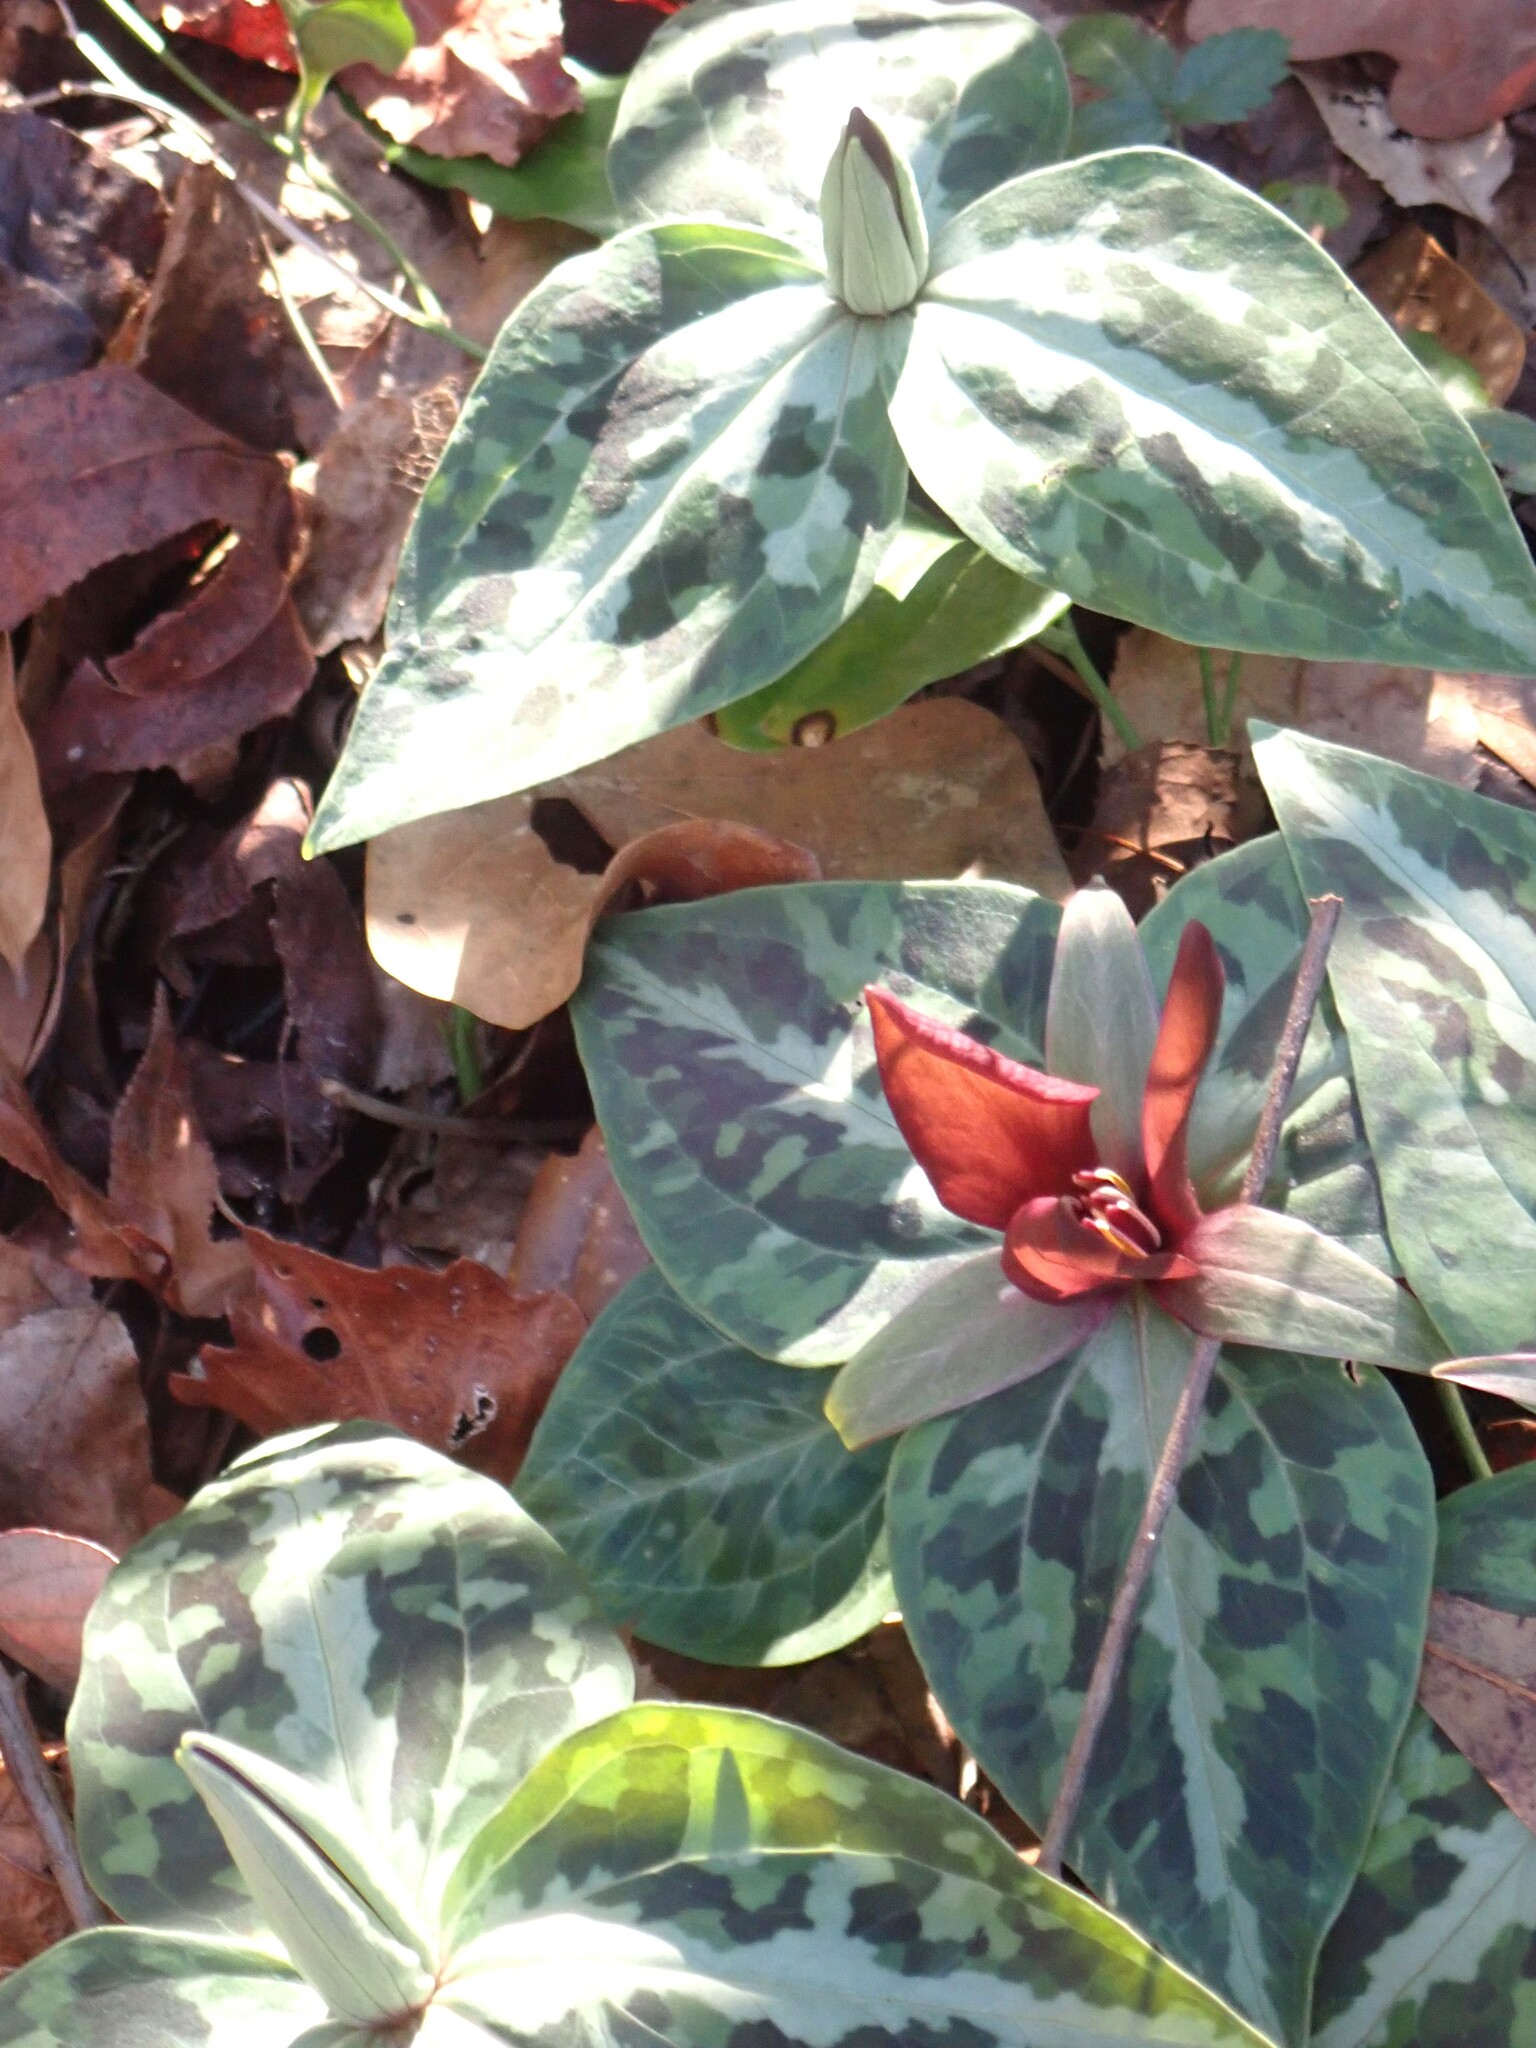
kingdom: Plantae
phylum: Tracheophyta
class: Liliopsida
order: Liliales
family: Melanthiaceae
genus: Trillium
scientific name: Trillium underwoodii
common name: Longbract wakerobin
